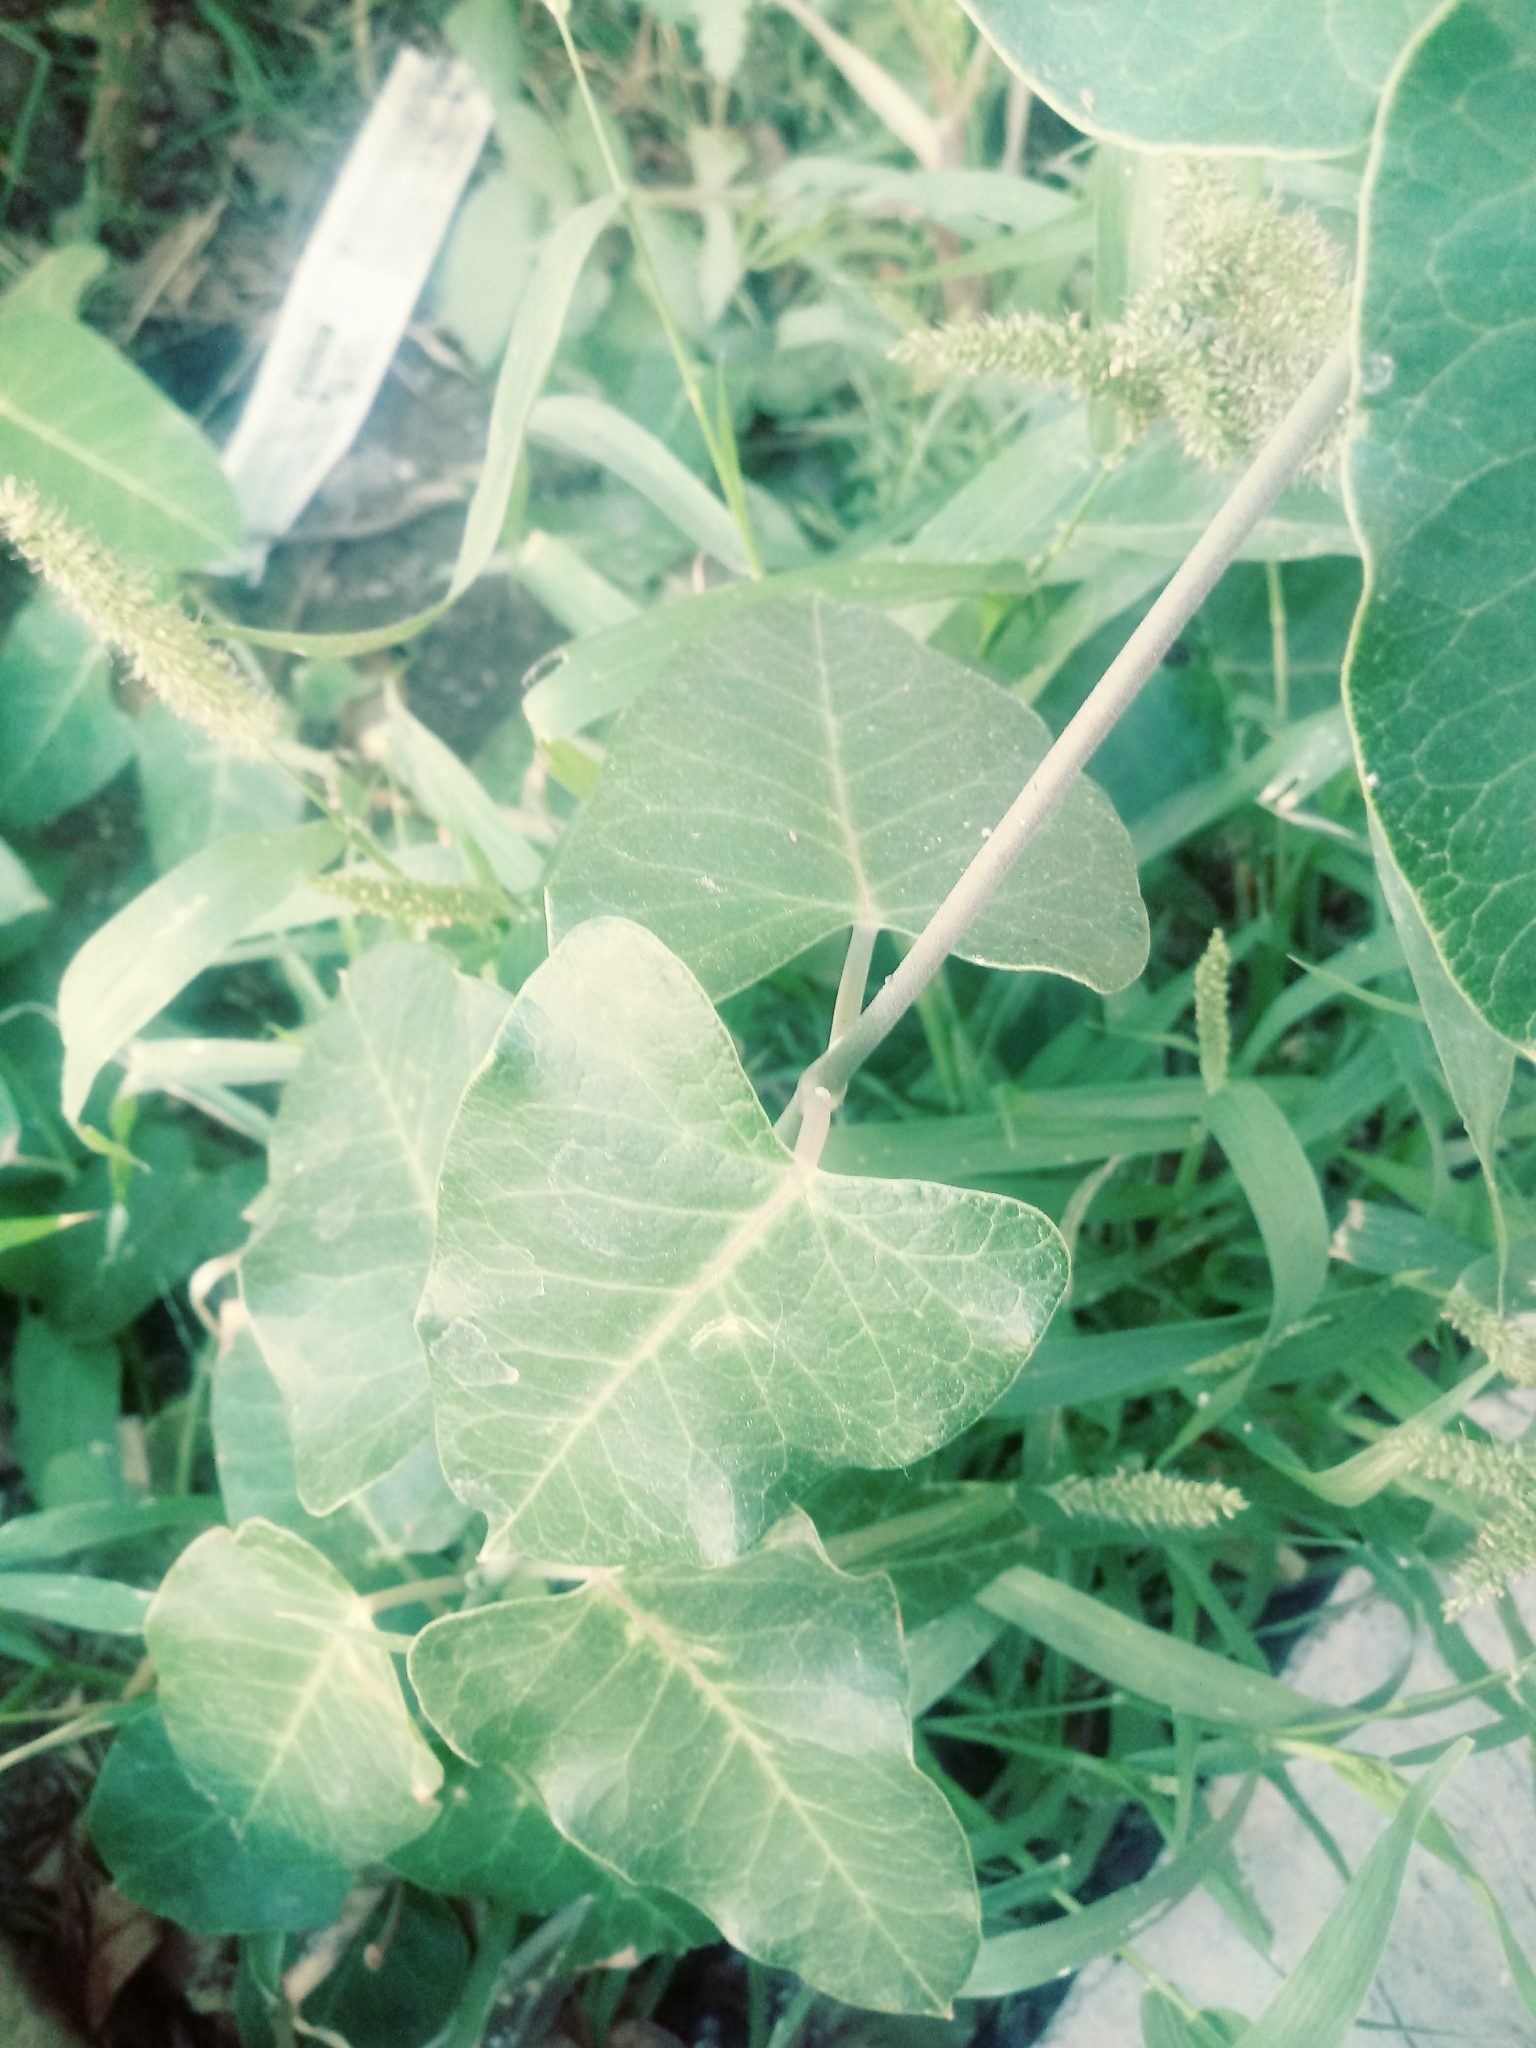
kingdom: Plantae
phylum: Tracheophyta
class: Magnoliopsida
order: Fabales
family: Fabaceae
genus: Phaseolus
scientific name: Phaseolus vulgaris
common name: Bean
